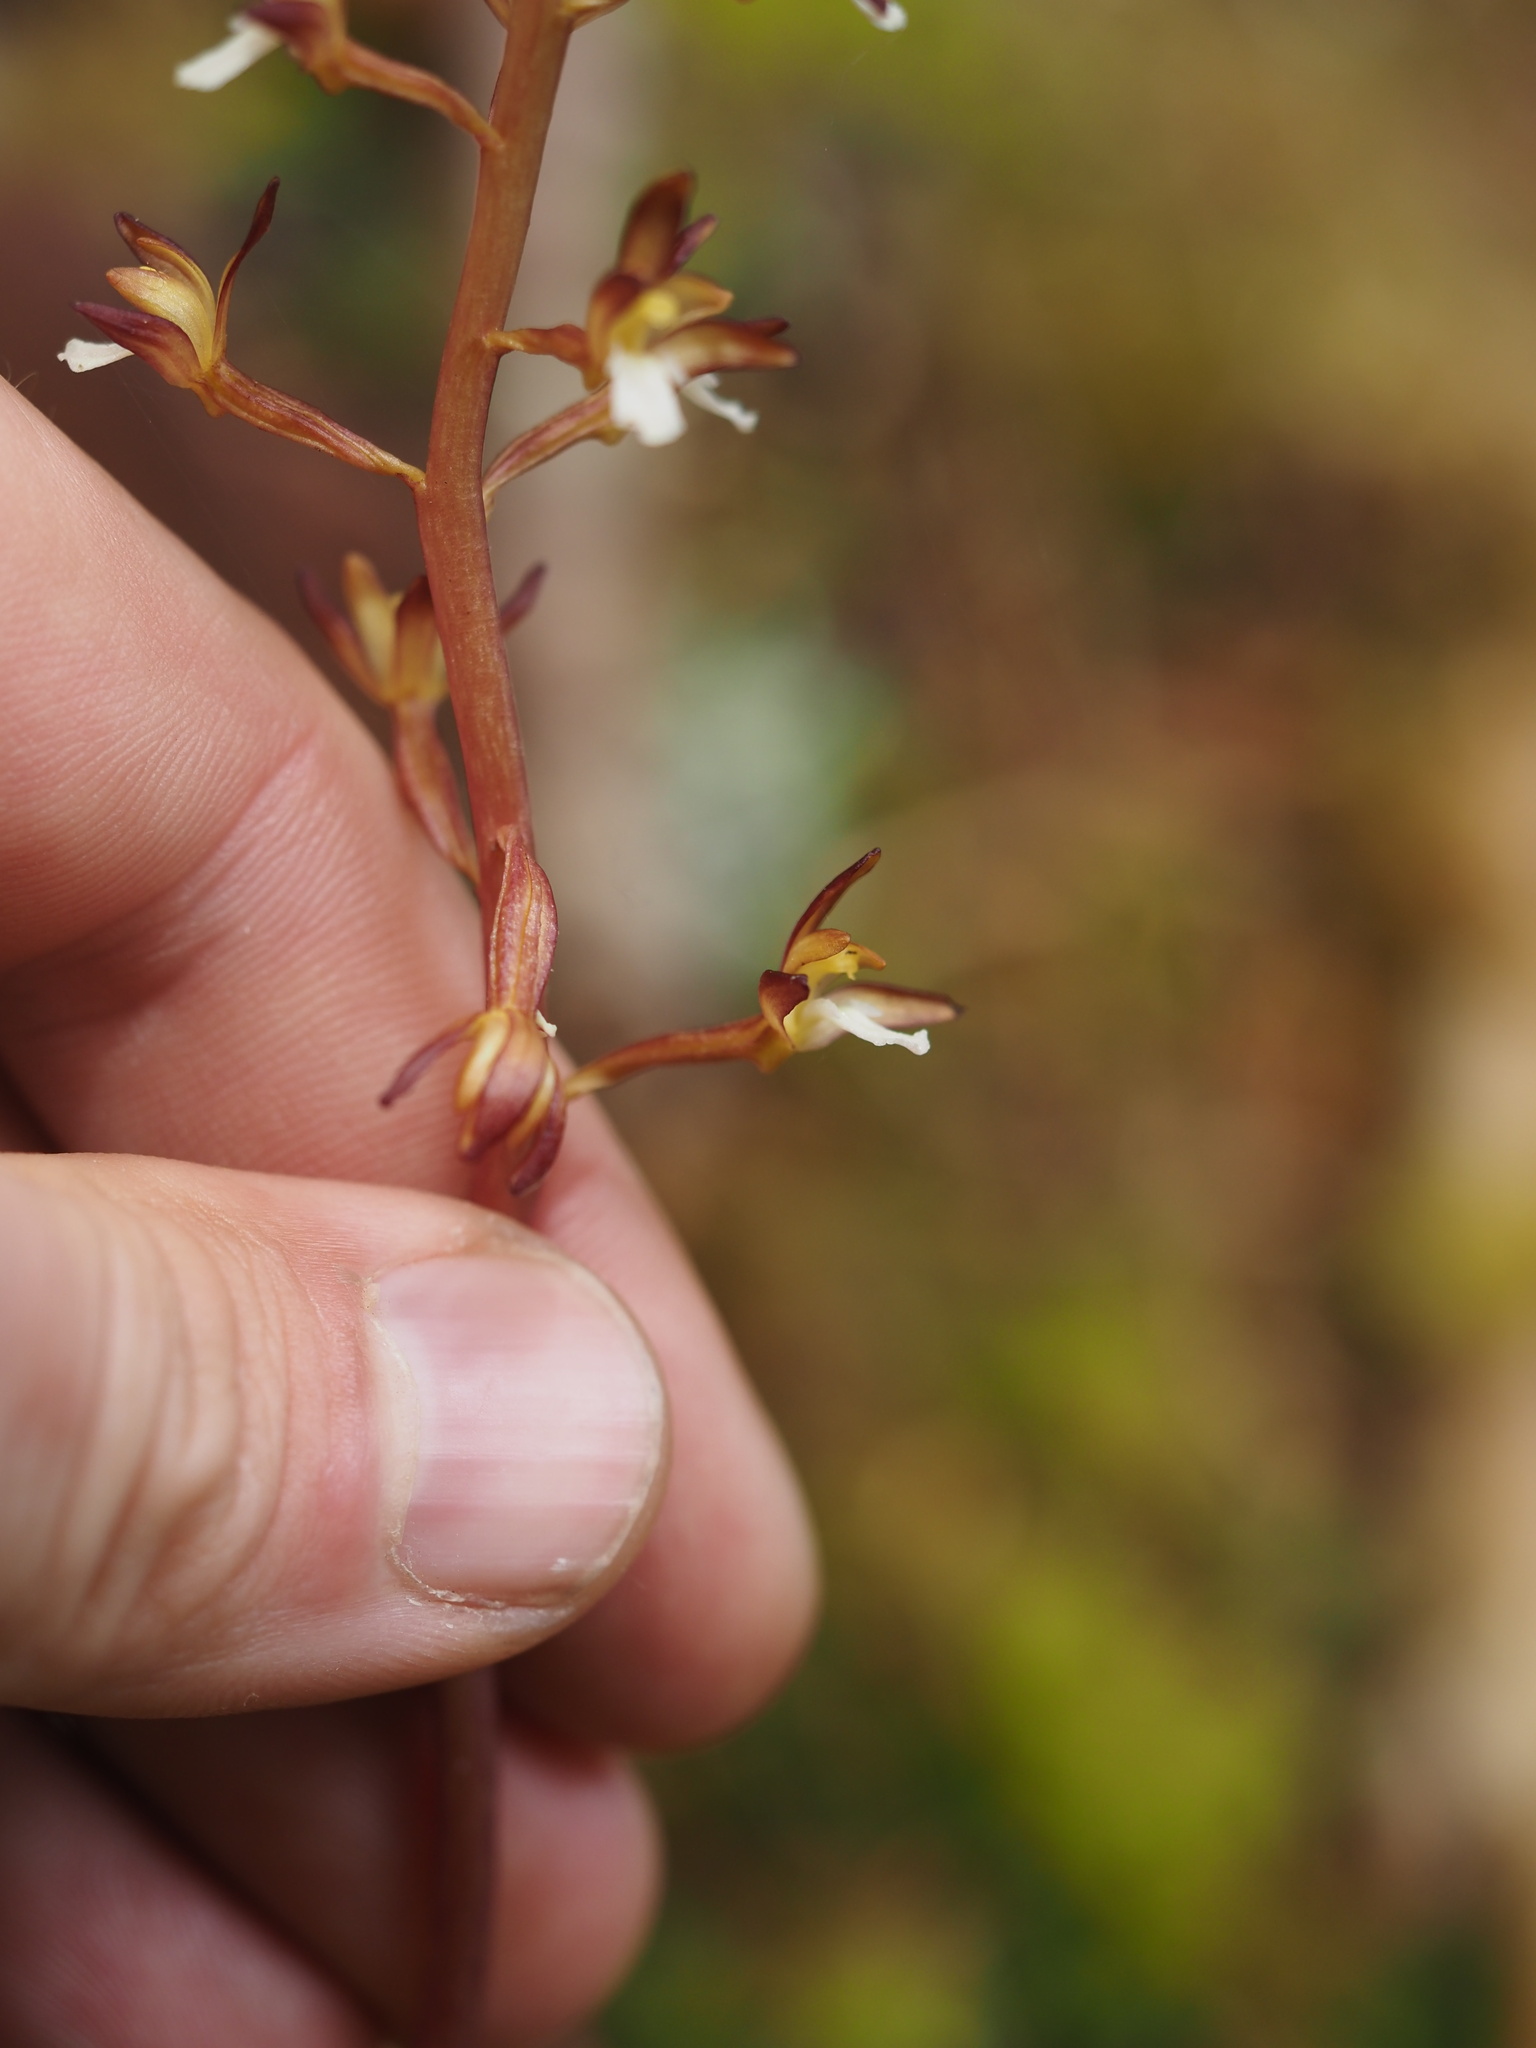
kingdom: Plantae
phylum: Tracheophyta
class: Liliopsida
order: Asparagales
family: Orchidaceae
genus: Corallorhiza
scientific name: Corallorhiza maculata
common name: Spotted coralroot
